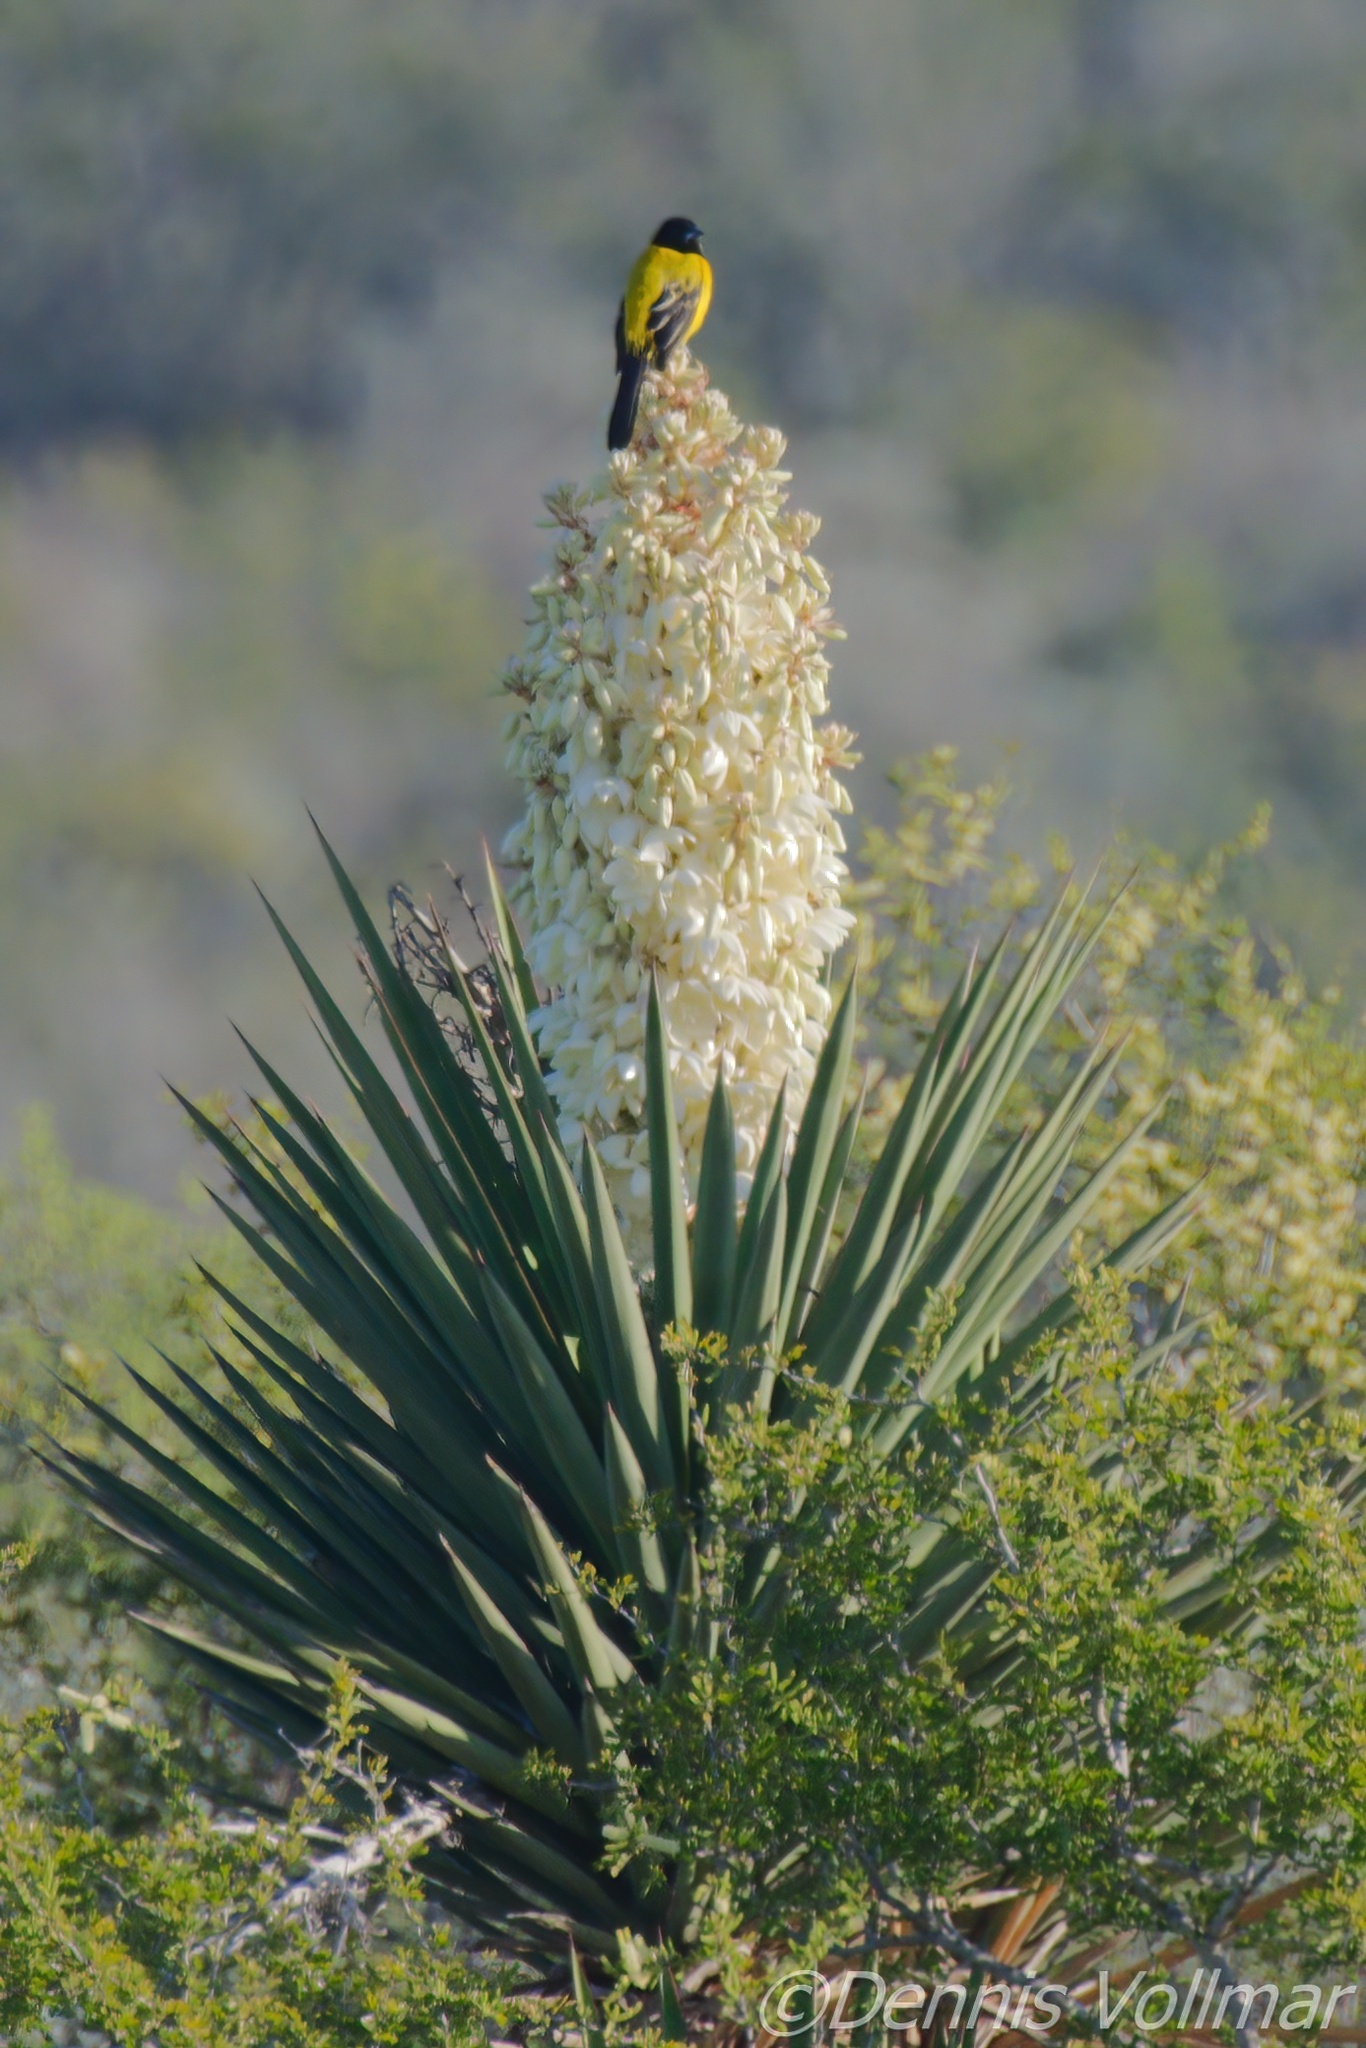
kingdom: Animalia
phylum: Chordata
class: Aves
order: Passeriformes
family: Icteridae
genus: Icterus
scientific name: Icterus graduacauda
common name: Audubon's oriole
